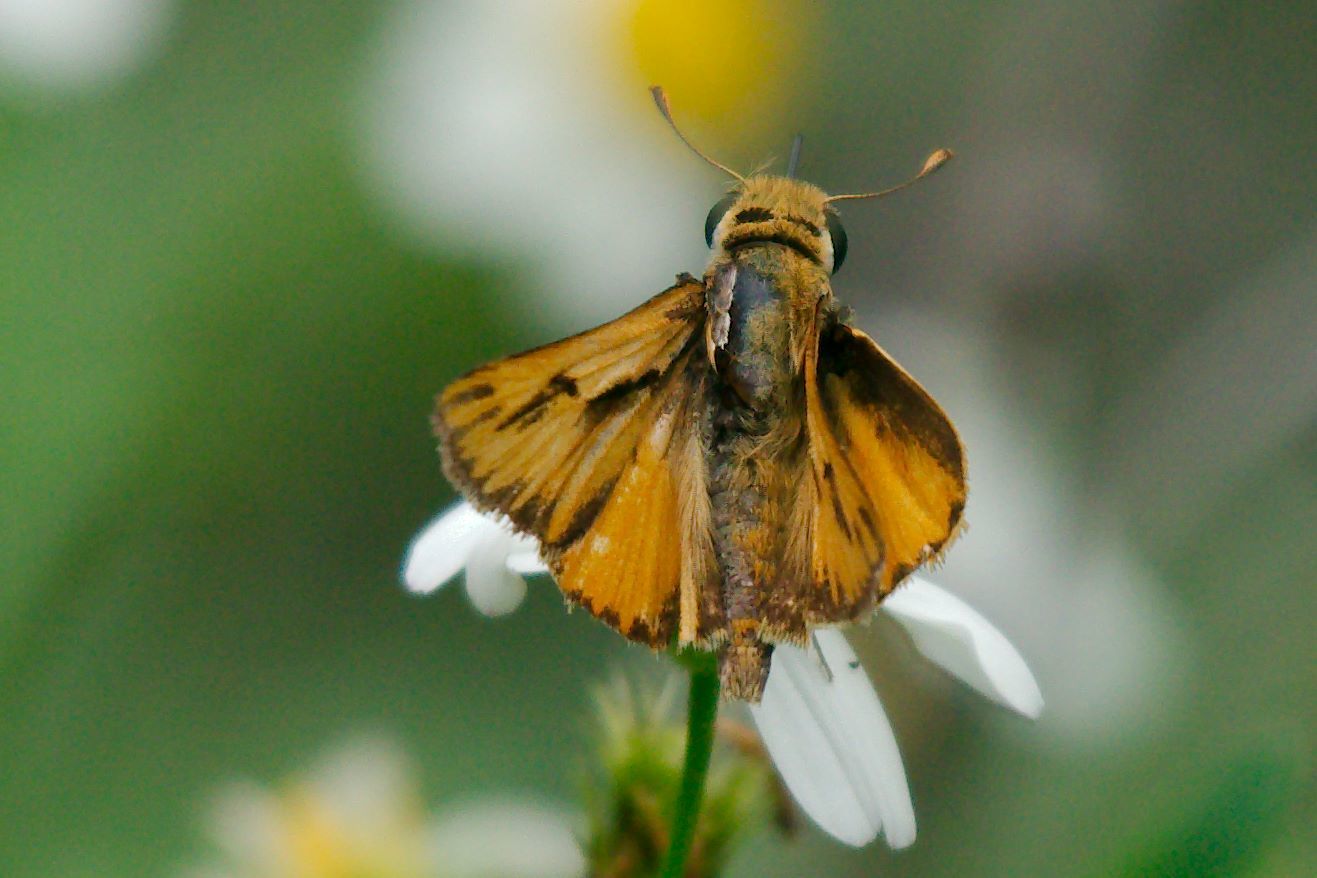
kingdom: Animalia
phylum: Arthropoda
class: Insecta
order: Lepidoptera
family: Hesperiidae
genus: Hylephila
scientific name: Hylephila phyleus
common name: Fiery skipper
